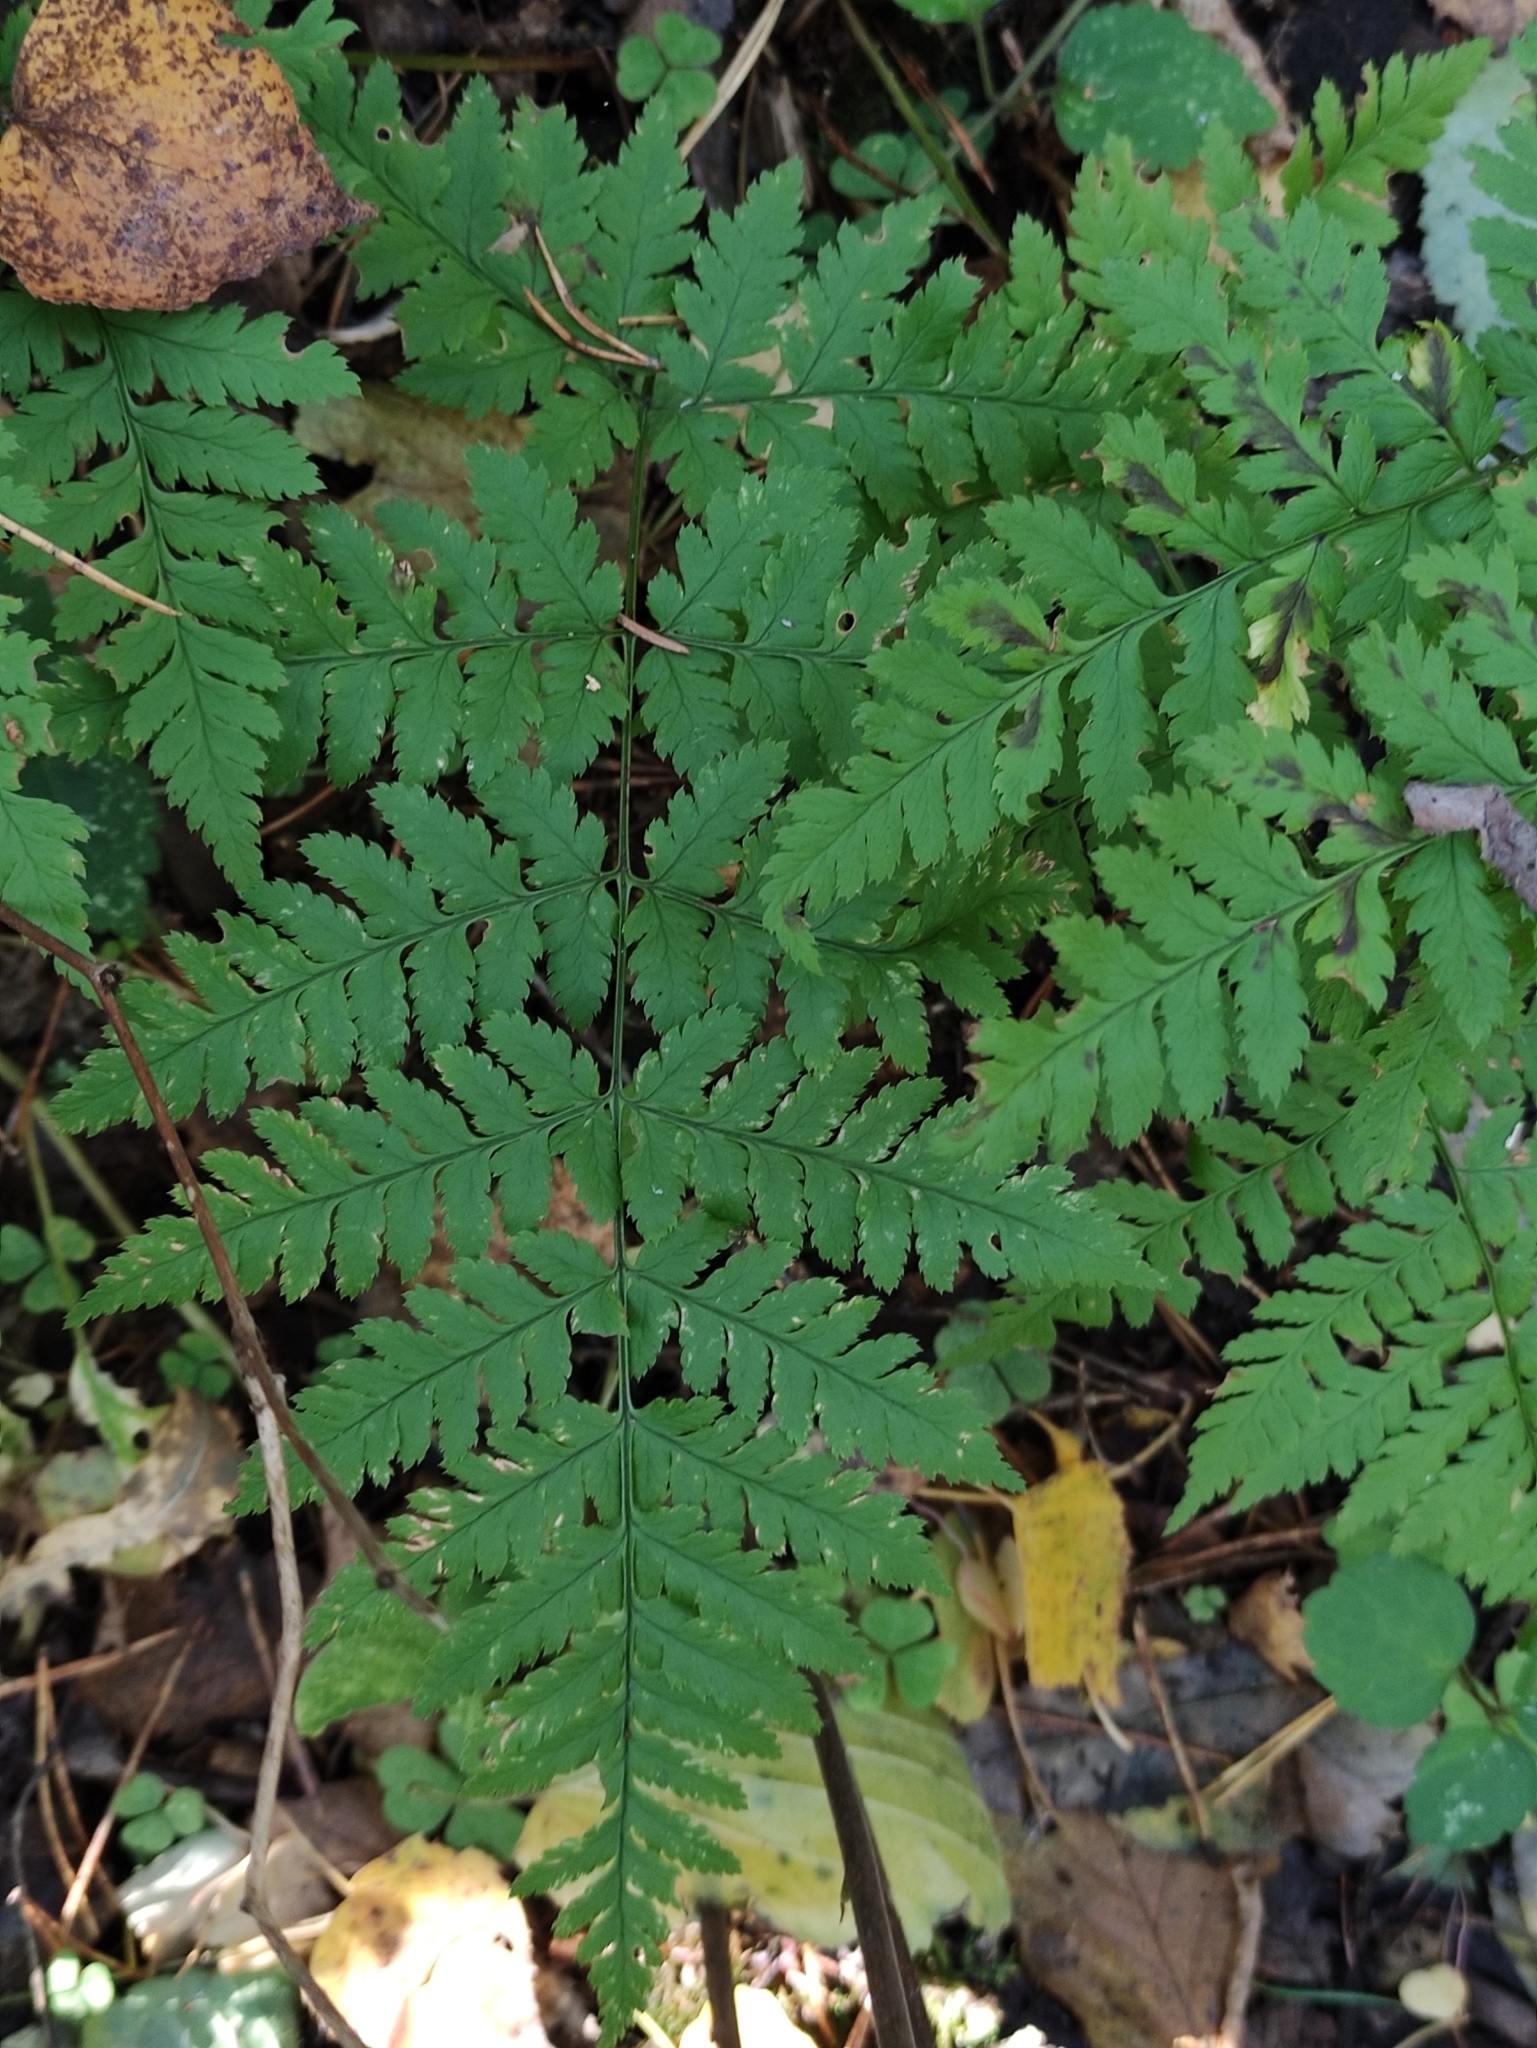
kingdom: Plantae
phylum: Tracheophyta
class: Polypodiopsida
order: Polypodiales
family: Dryopteridaceae
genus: Dryopteris
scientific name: Dryopteris carthusiana
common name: Narrow buckler-fern
